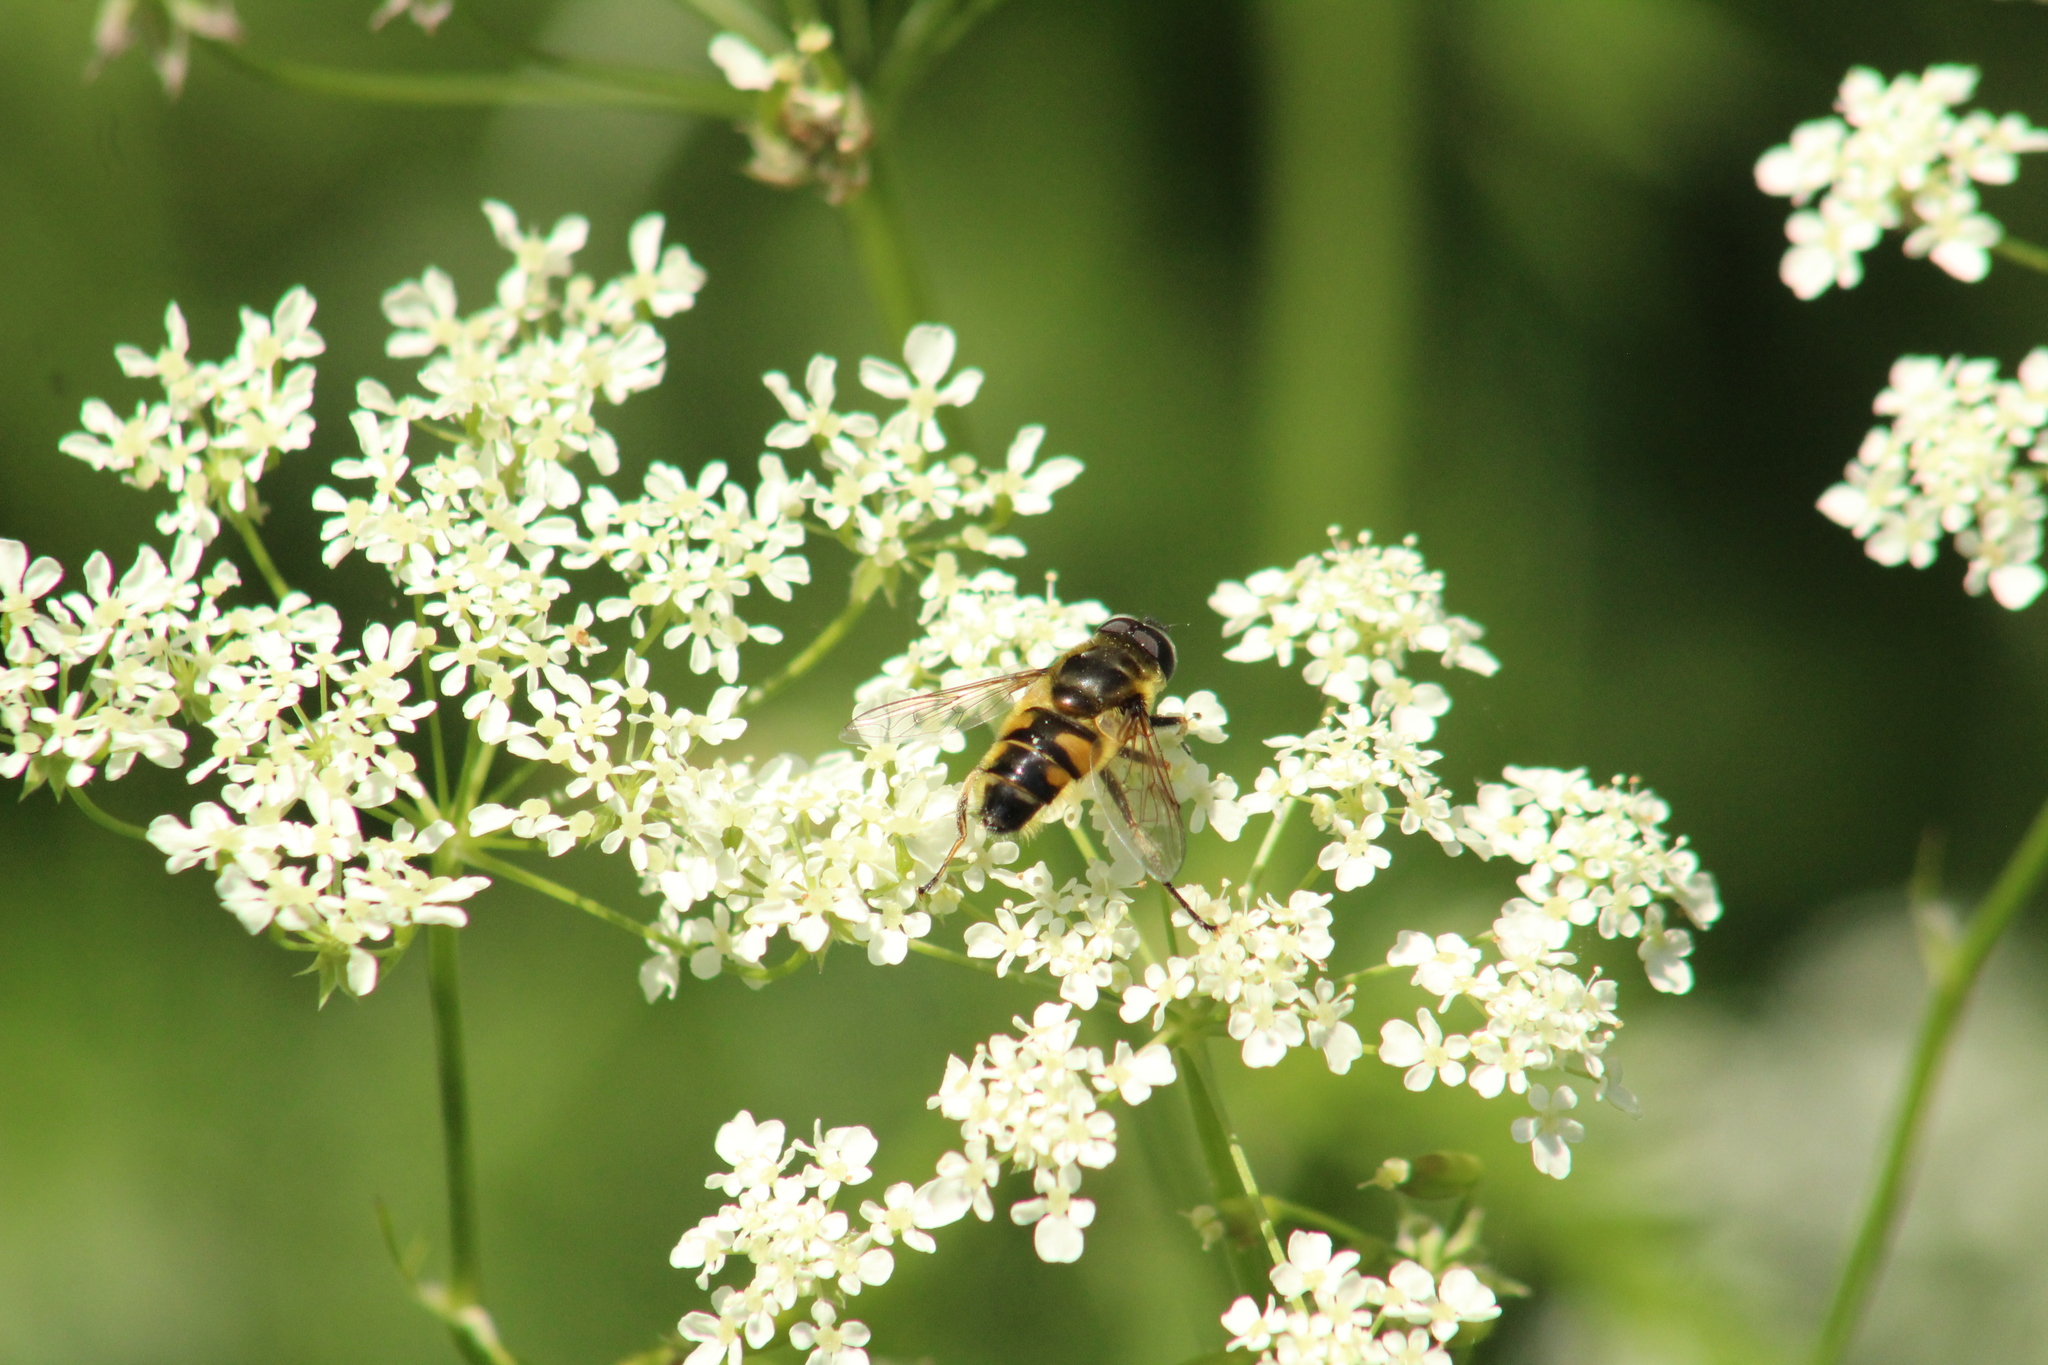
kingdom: Animalia
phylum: Arthropoda
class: Insecta
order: Diptera
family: Syrphidae
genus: Myathropa
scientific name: Myathropa florea
